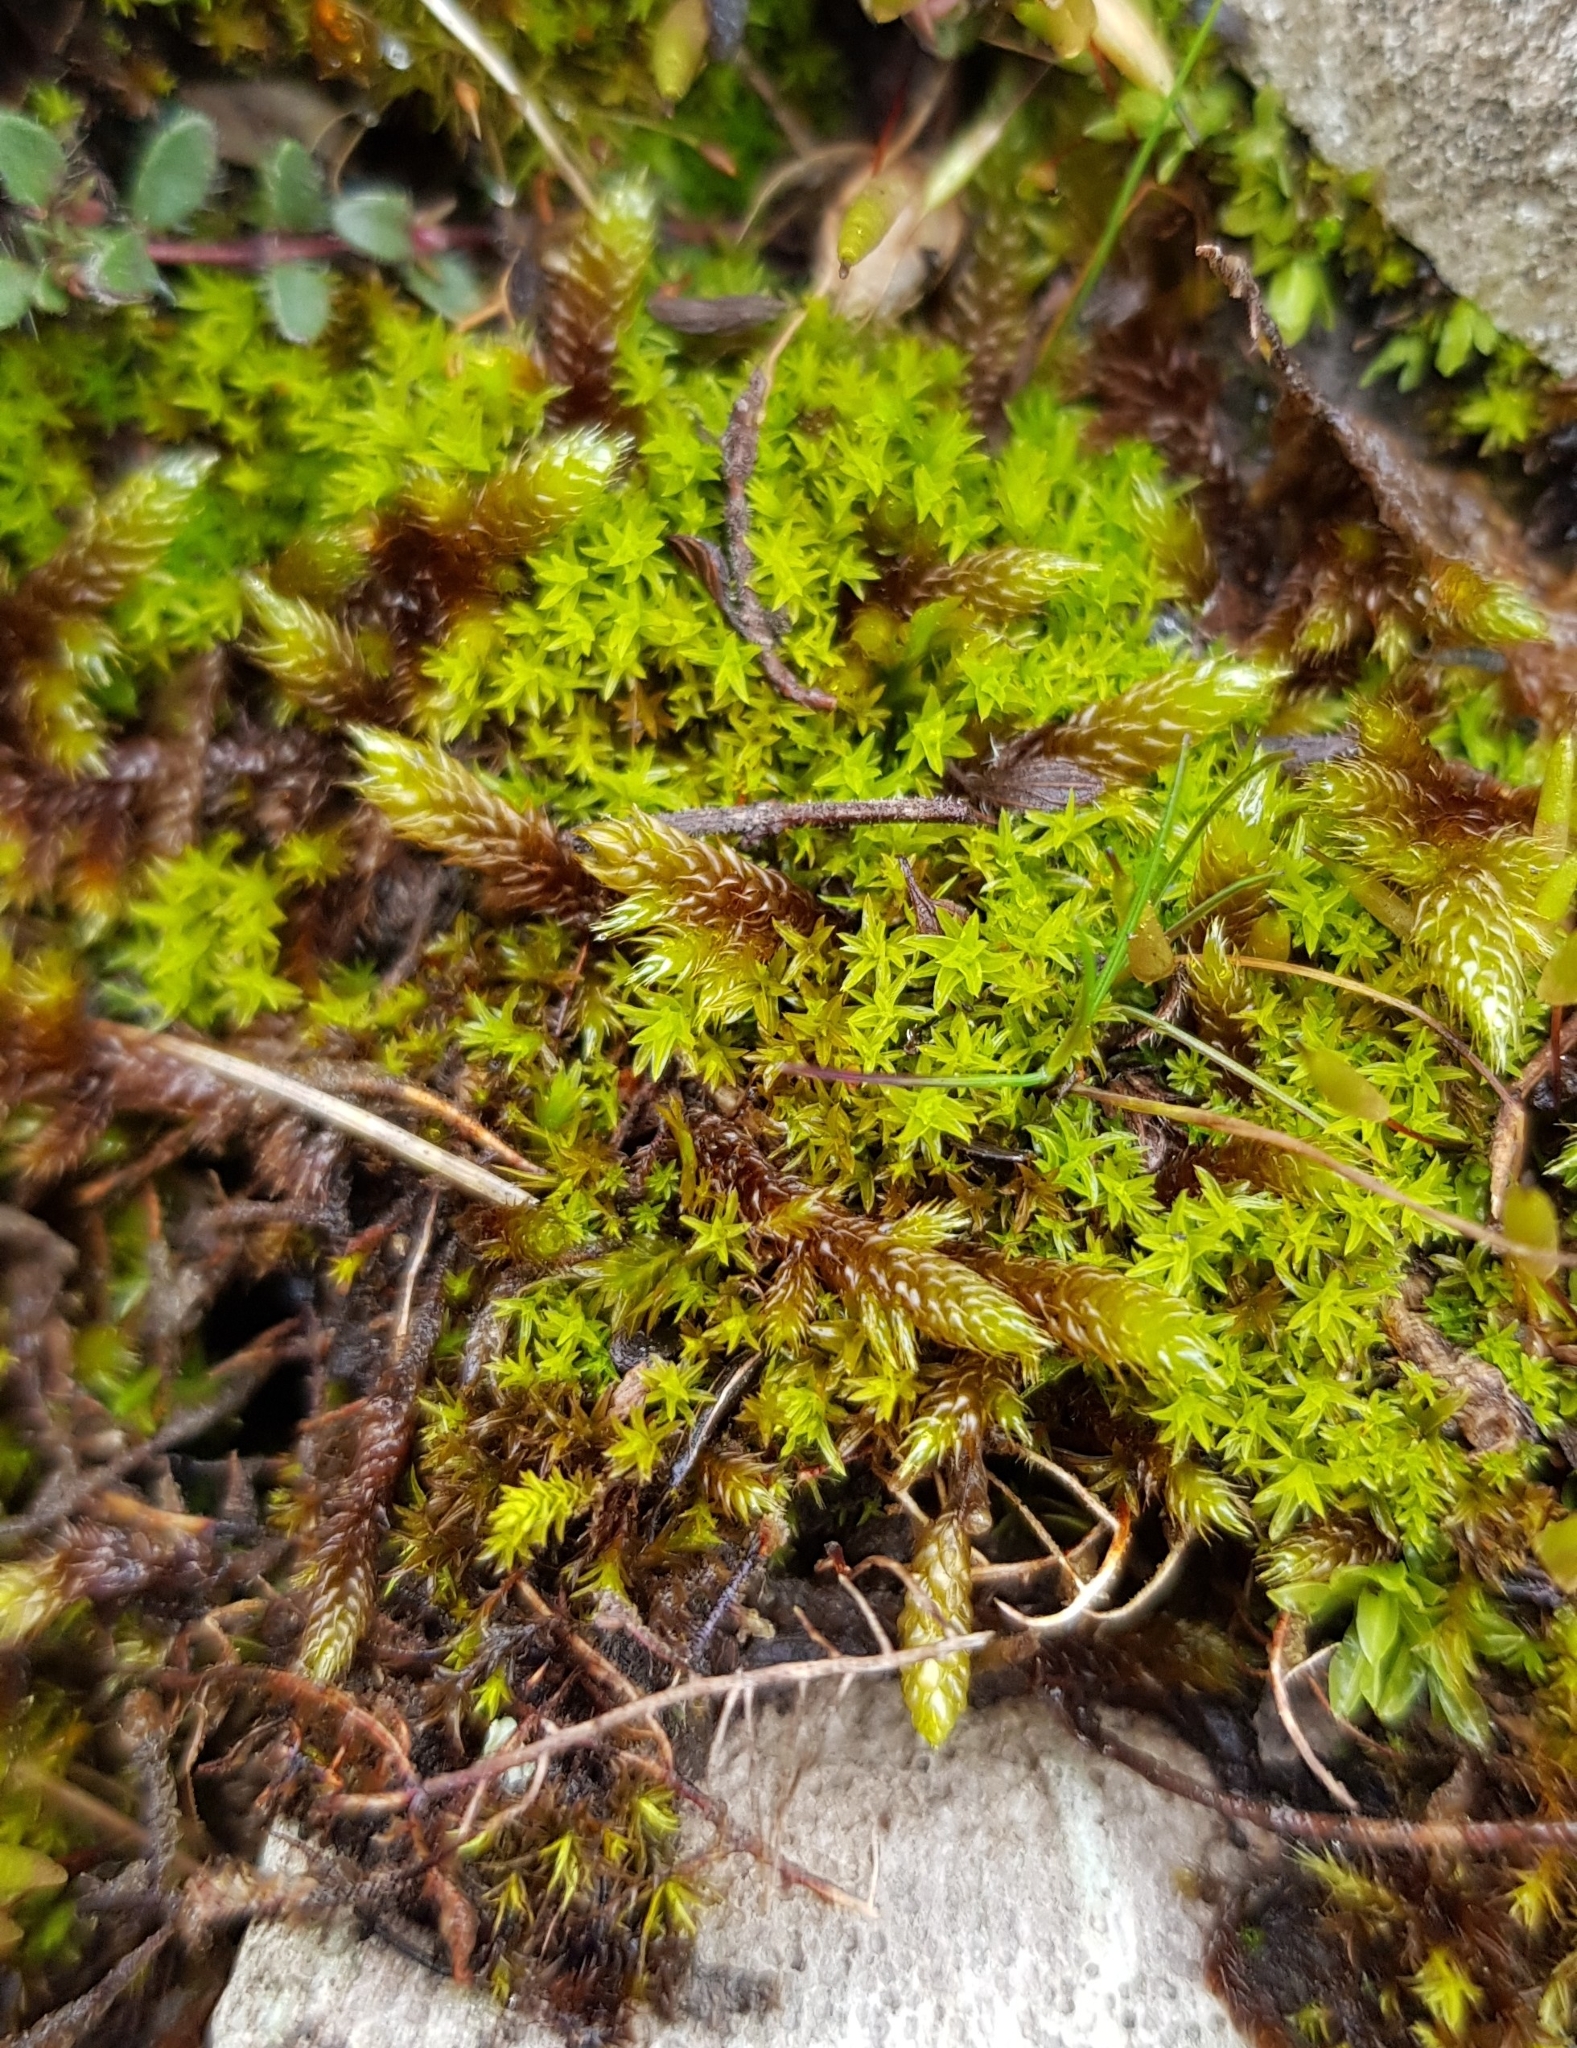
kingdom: Plantae
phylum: Bryophyta
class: Bryopsida
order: Pottiales
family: Pottiaceae
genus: Barbula
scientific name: Barbula unguiculata
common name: Prickly beard moss
